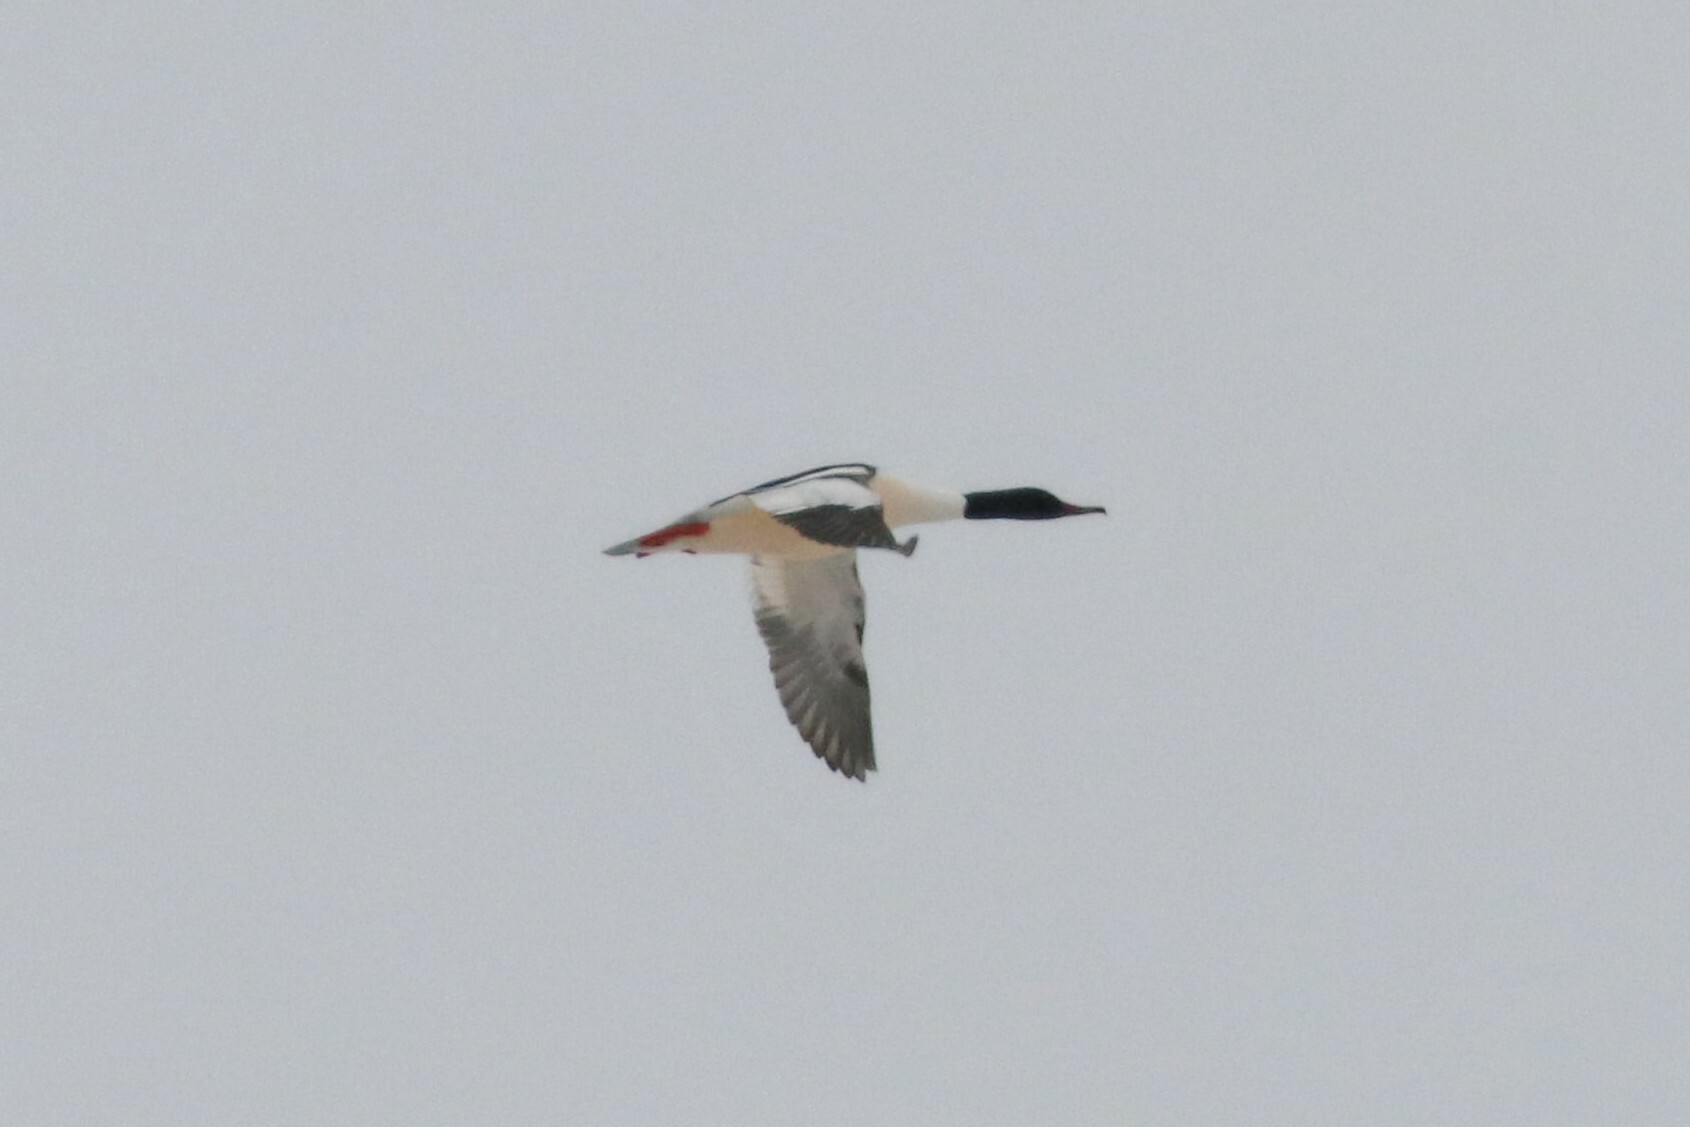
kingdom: Animalia
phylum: Chordata
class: Aves
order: Anseriformes
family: Anatidae
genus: Mergus
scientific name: Mergus merganser
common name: Common merganser
